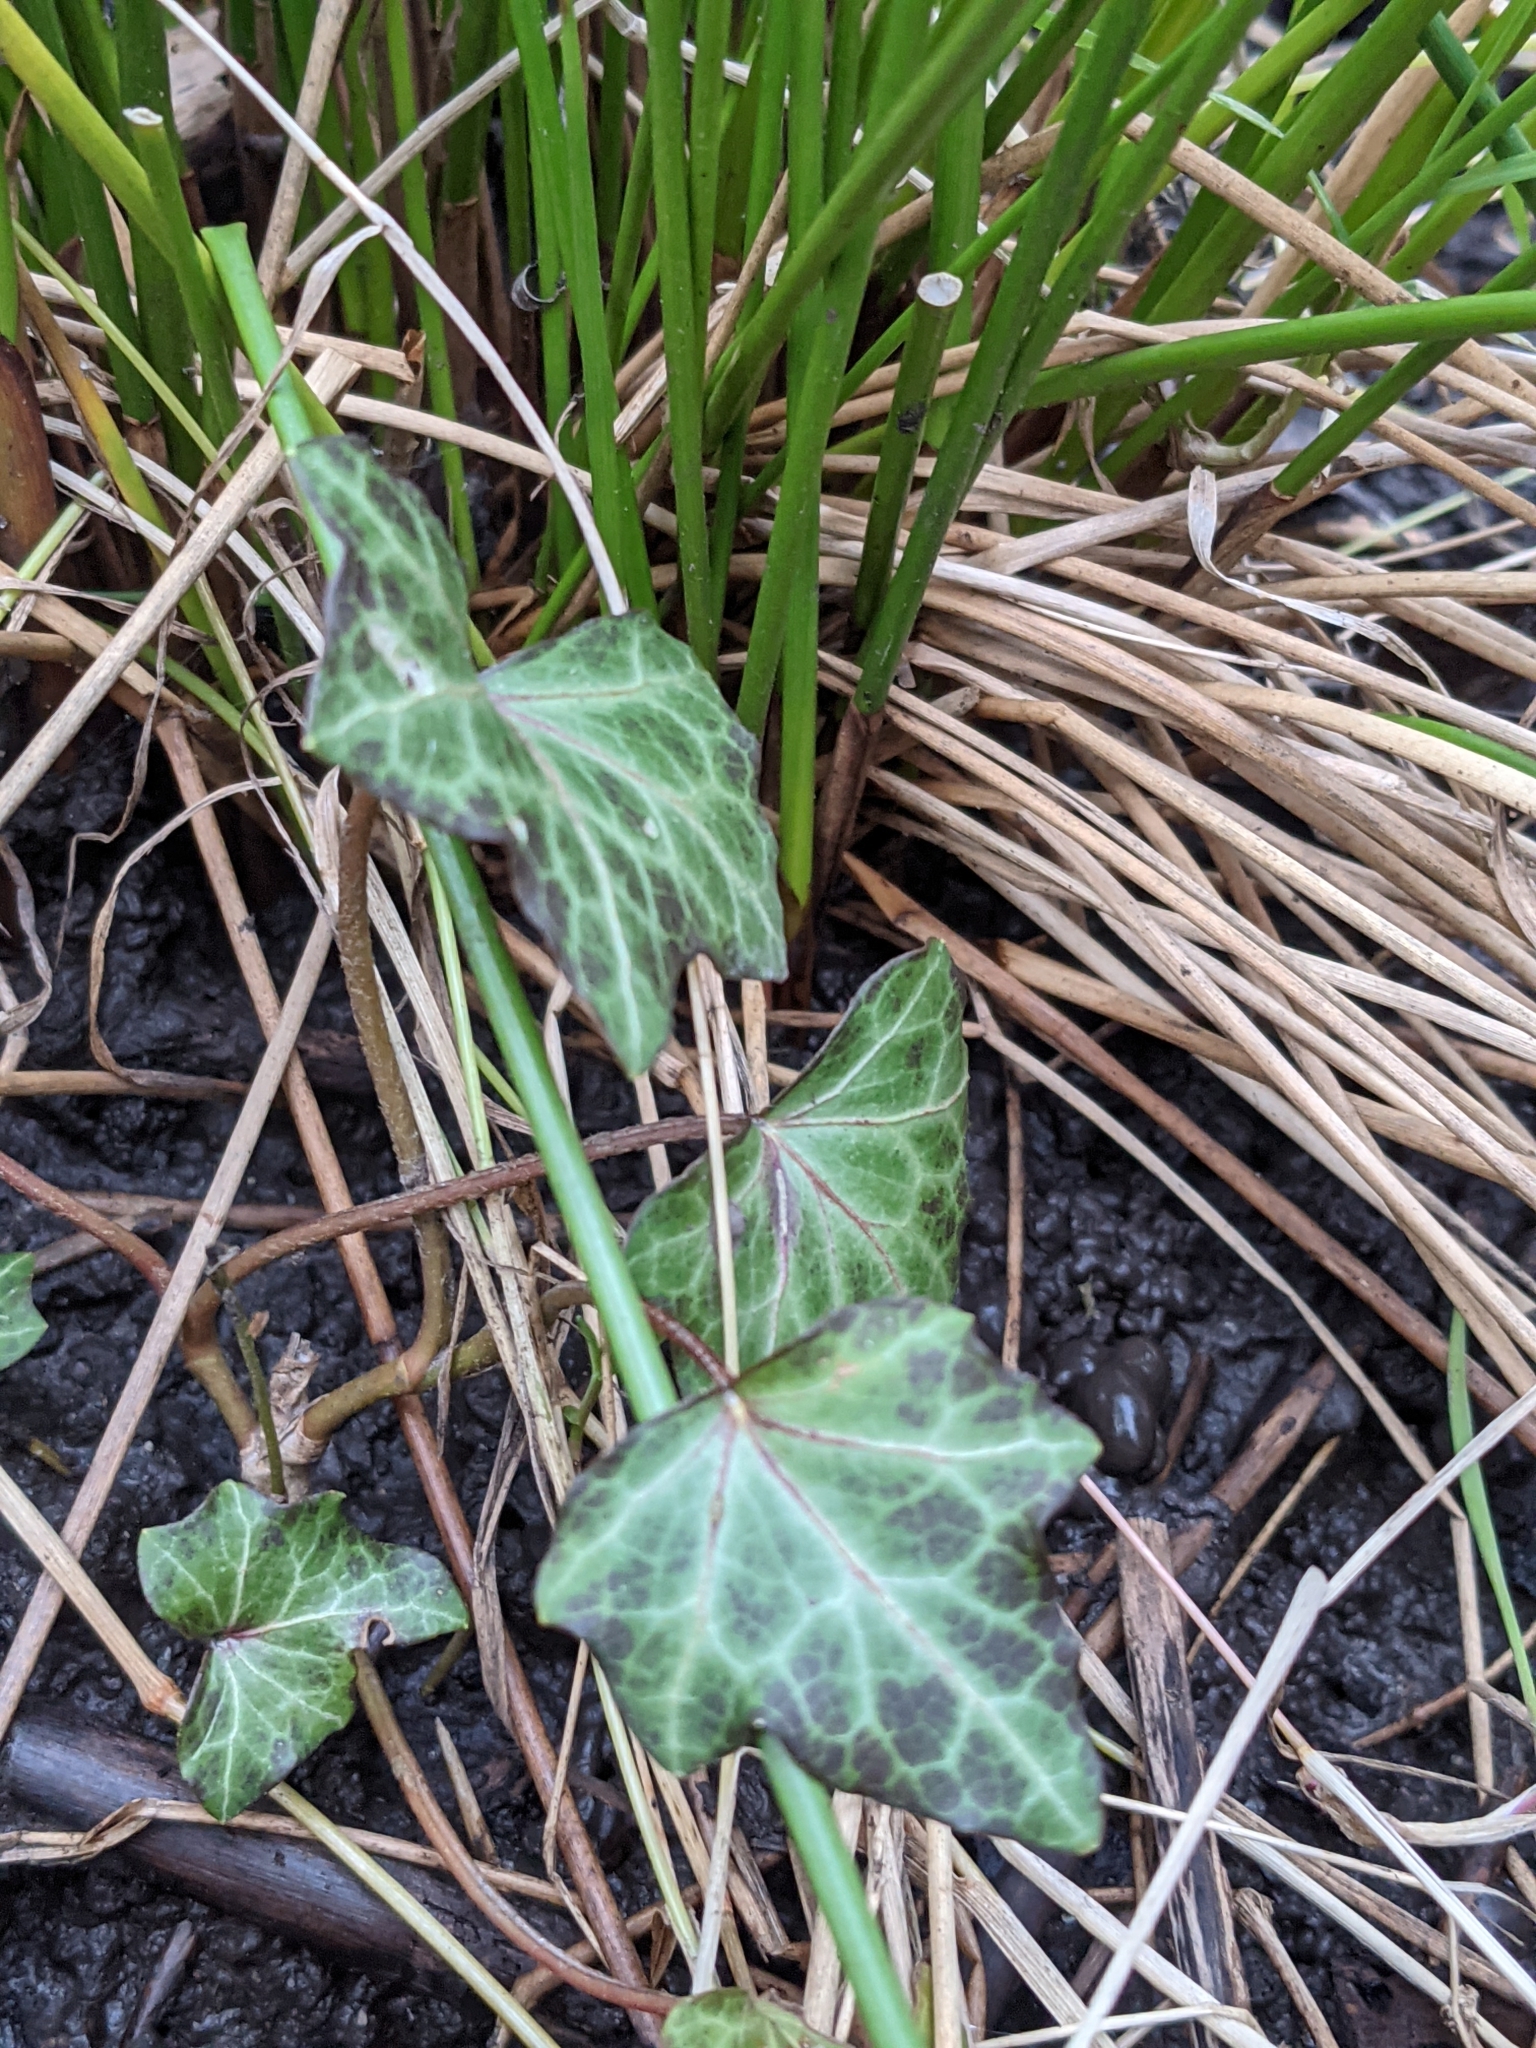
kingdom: Plantae
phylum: Tracheophyta
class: Magnoliopsida
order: Apiales
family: Araliaceae
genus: Hedera
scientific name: Hedera helix
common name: Ivy
